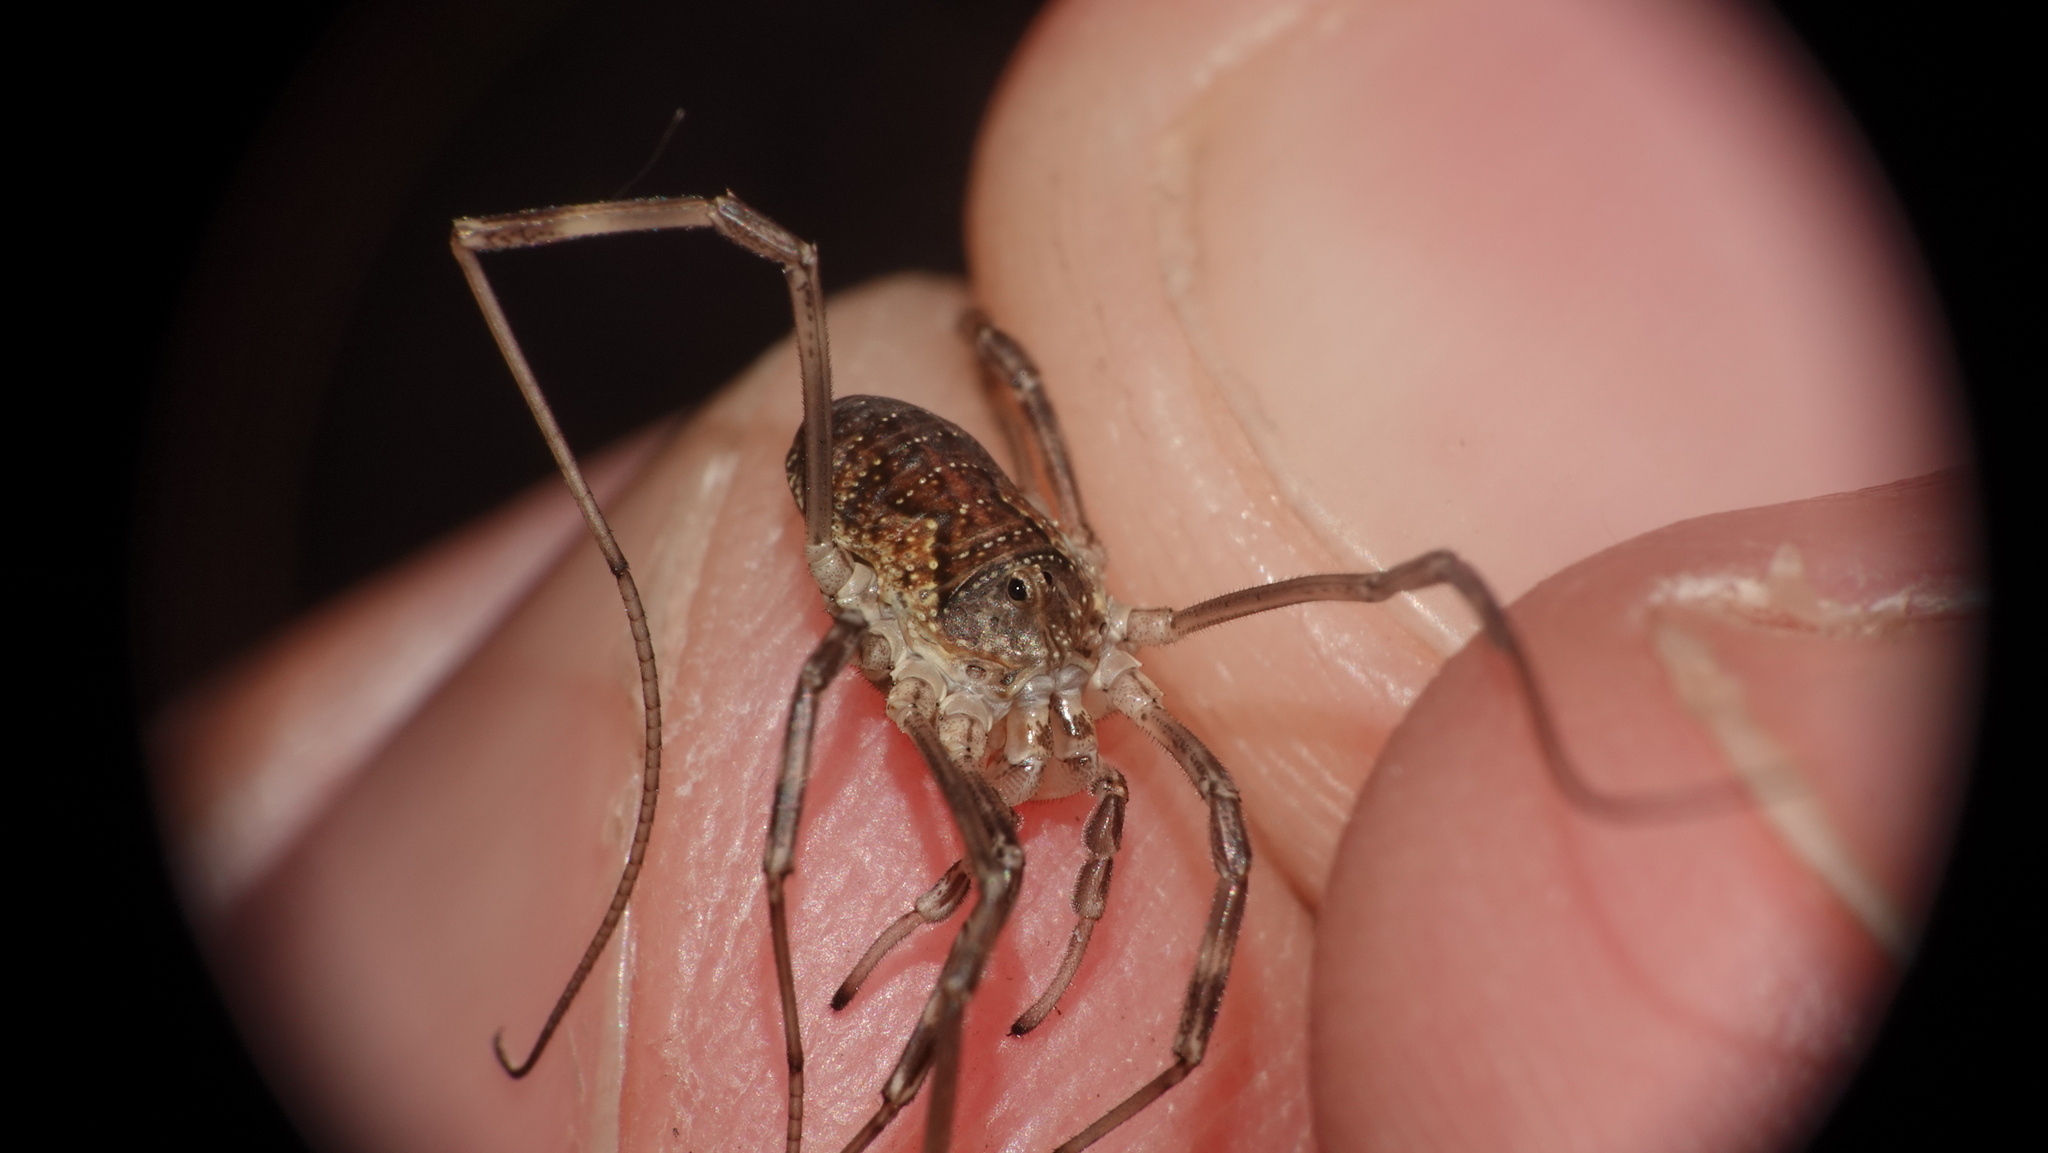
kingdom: Animalia
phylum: Arthropoda
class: Arachnida
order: Opiliones
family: Phalangiidae
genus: Mitopus
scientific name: Mitopus morio
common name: Saddleback harvestman
